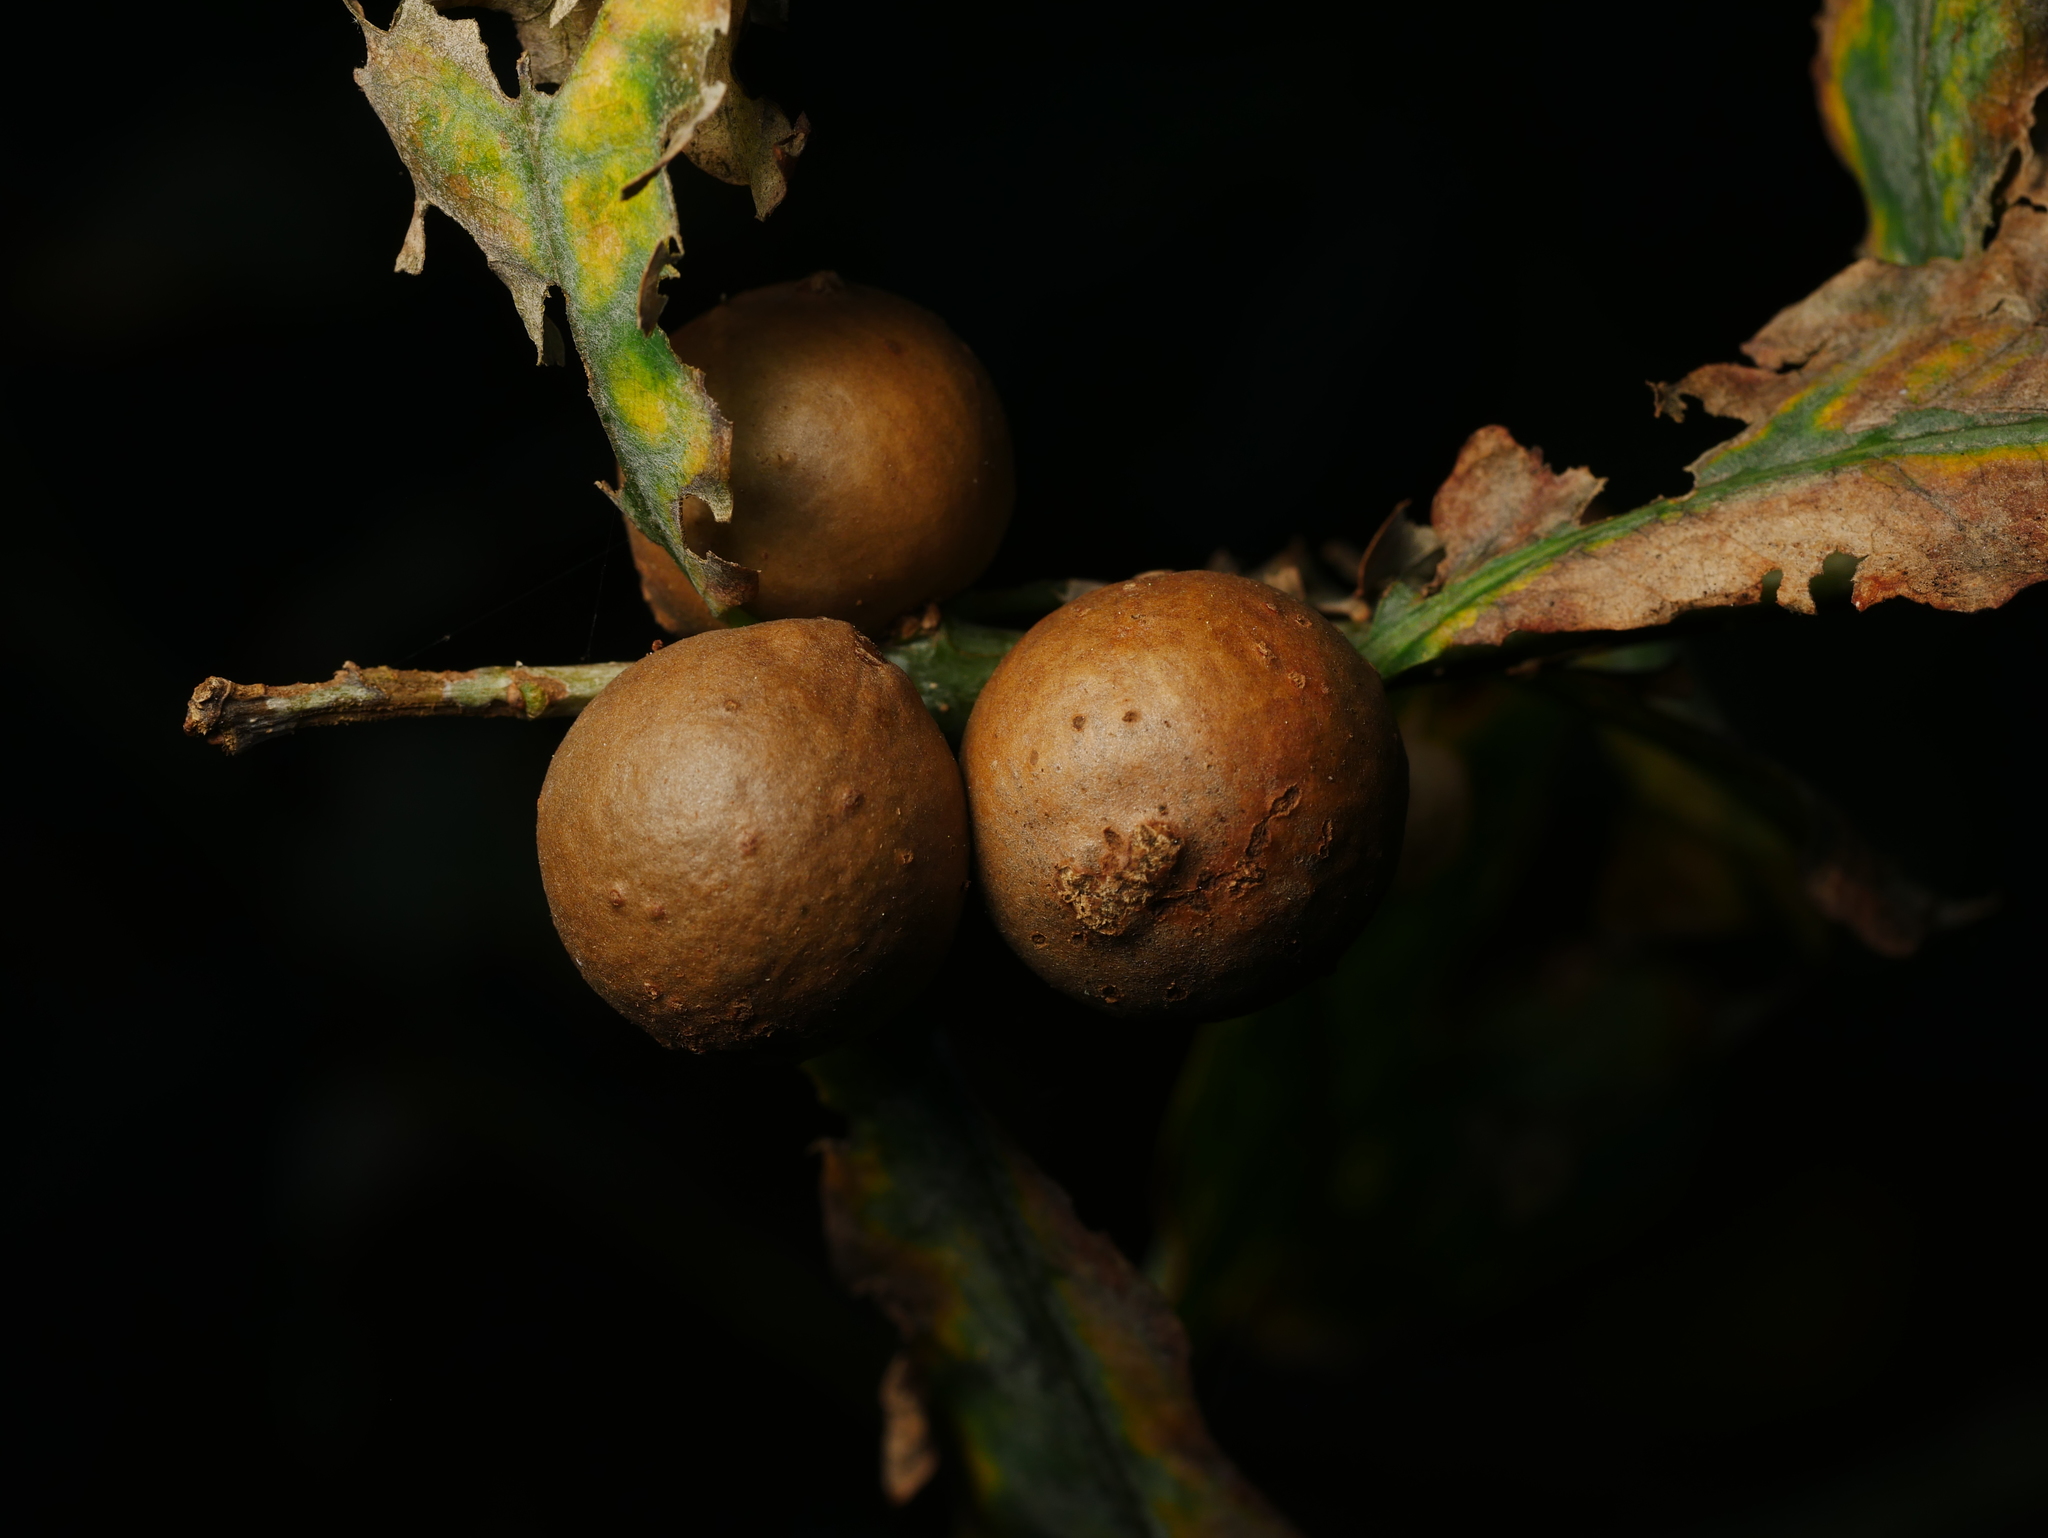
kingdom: Animalia
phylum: Arthropoda
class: Insecta
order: Hymenoptera
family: Cynipidae
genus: Andricus
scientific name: Andricus kollari
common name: Marble gall
